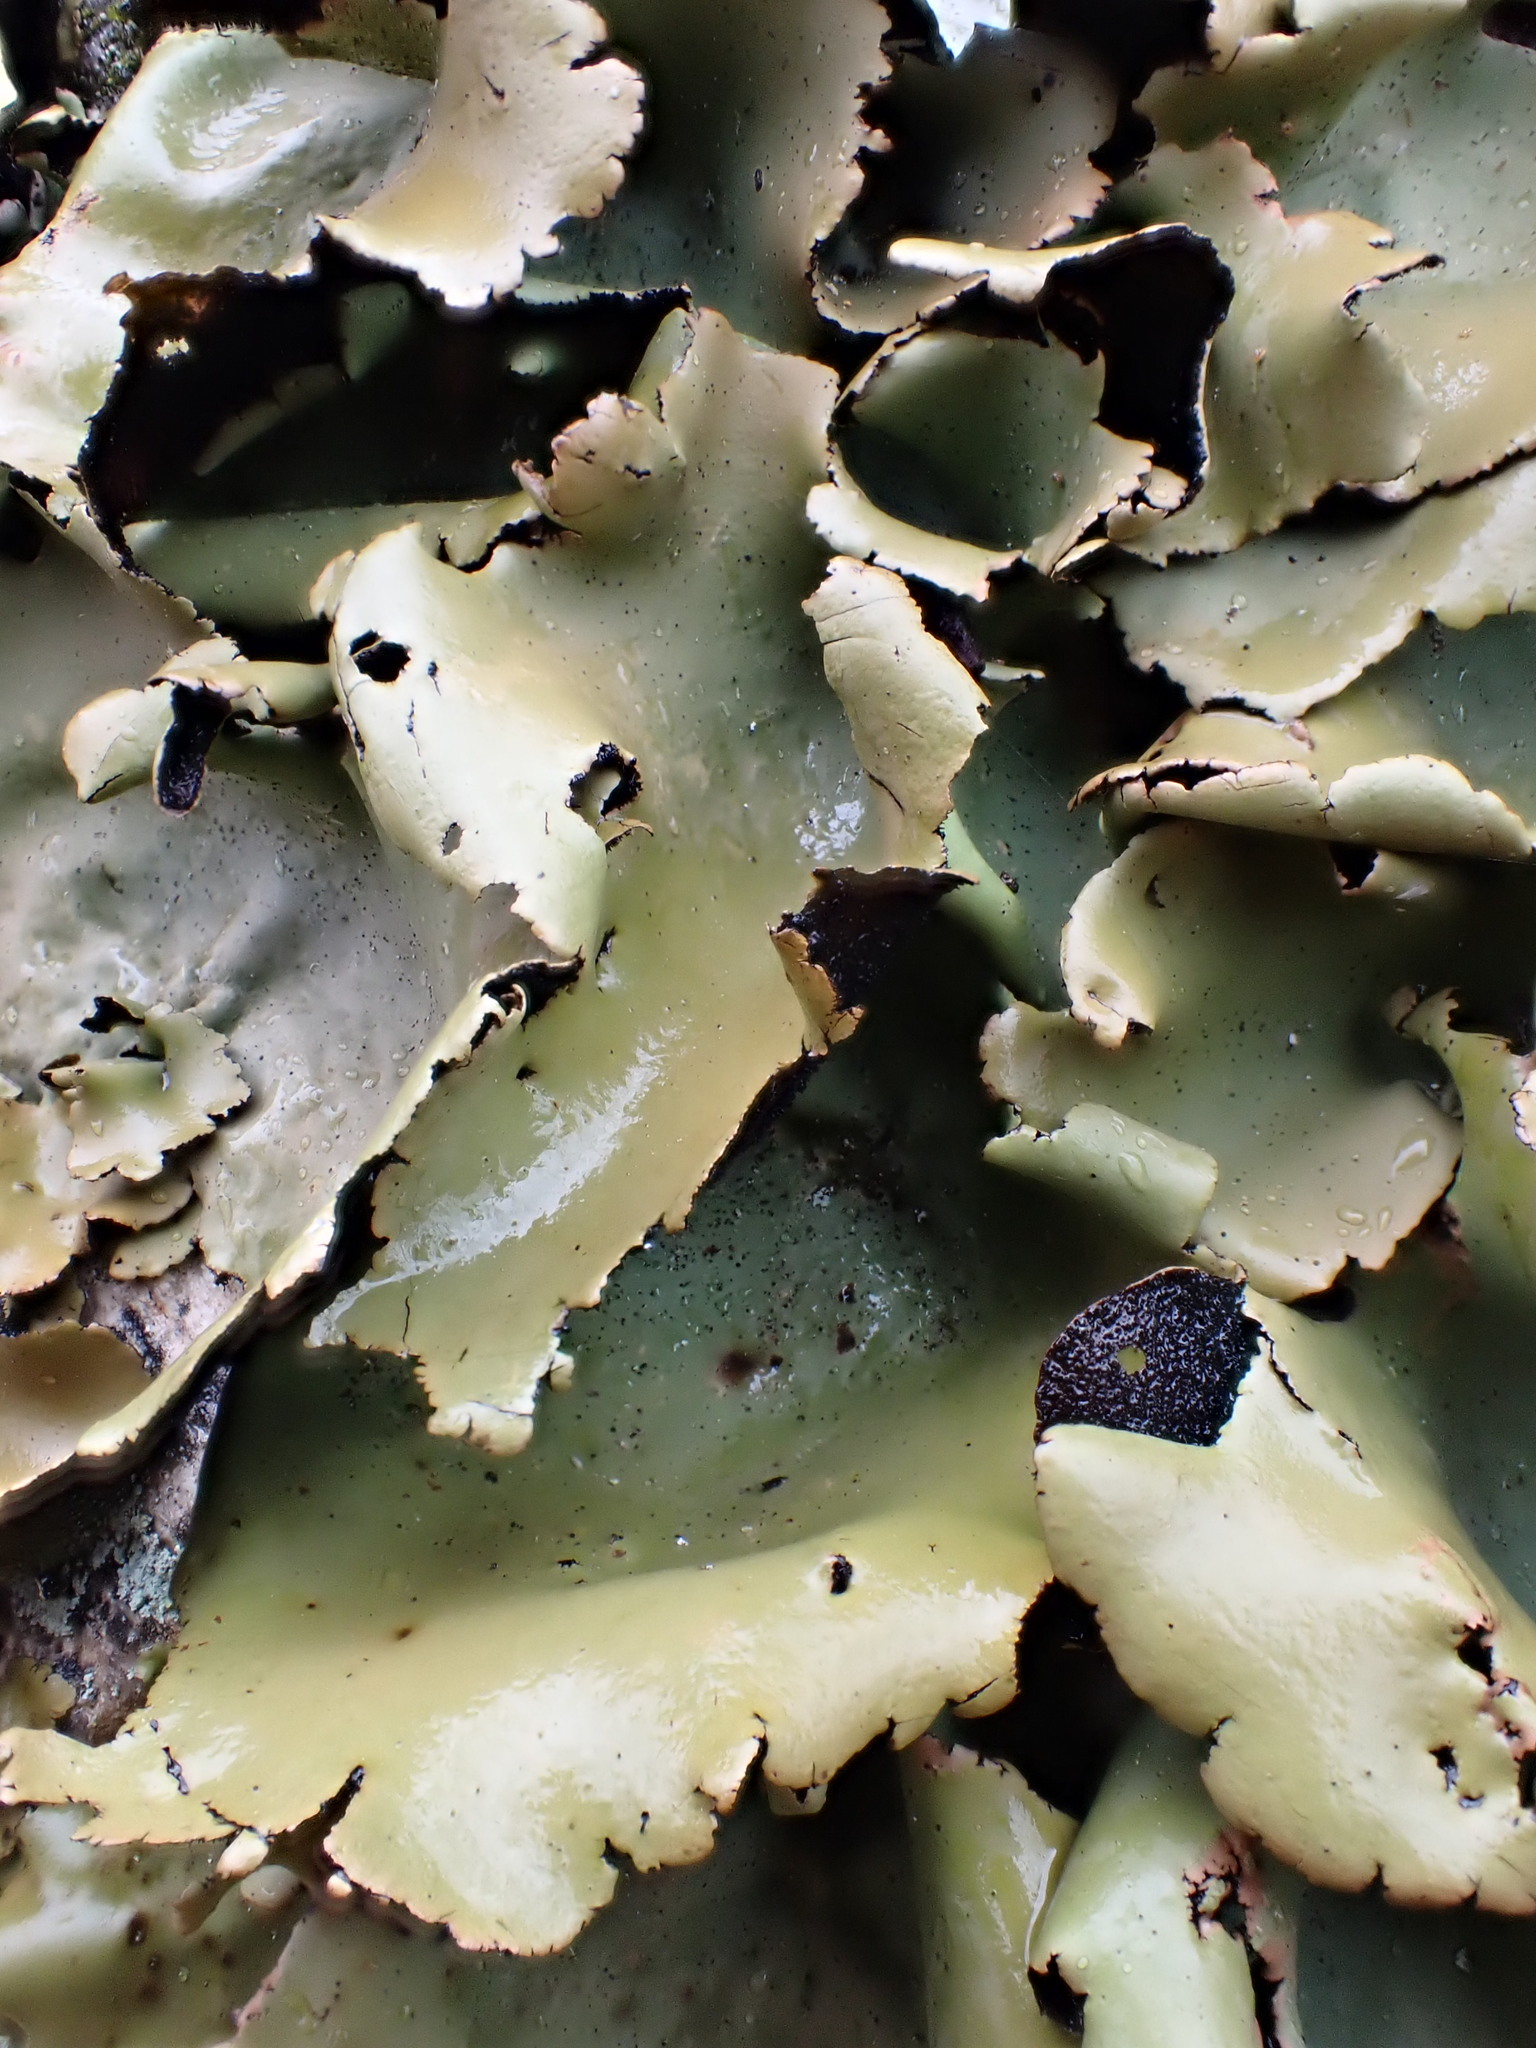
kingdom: Fungi
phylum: Ascomycota
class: Lecanoromycetes
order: Umbilicariales
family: Umbilicariaceae
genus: Umbilicaria
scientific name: Umbilicaria mammulata
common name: Smooth rock tripe
